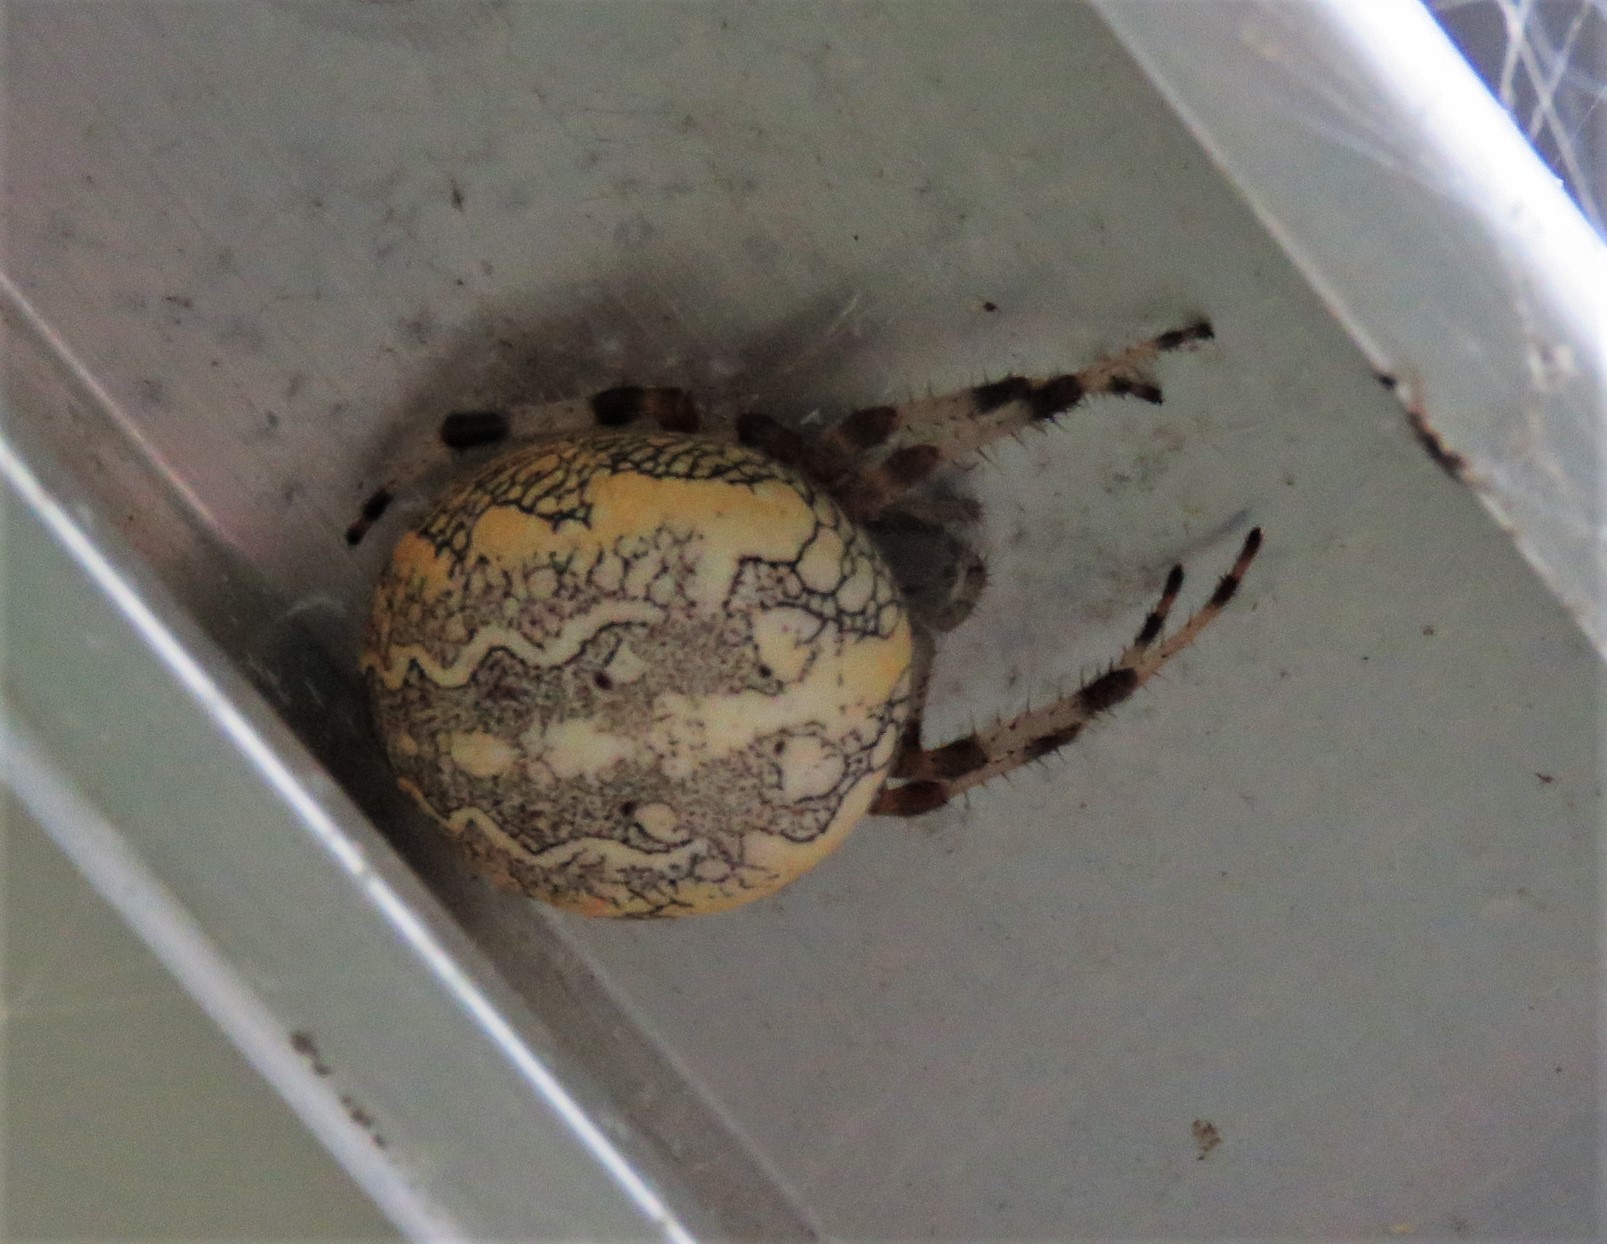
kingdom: Animalia
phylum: Arthropoda
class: Arachnida
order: Araneae
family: Araneidae
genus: Araneus
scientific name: Araneus marmoreus
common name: Marbled orbweaver
